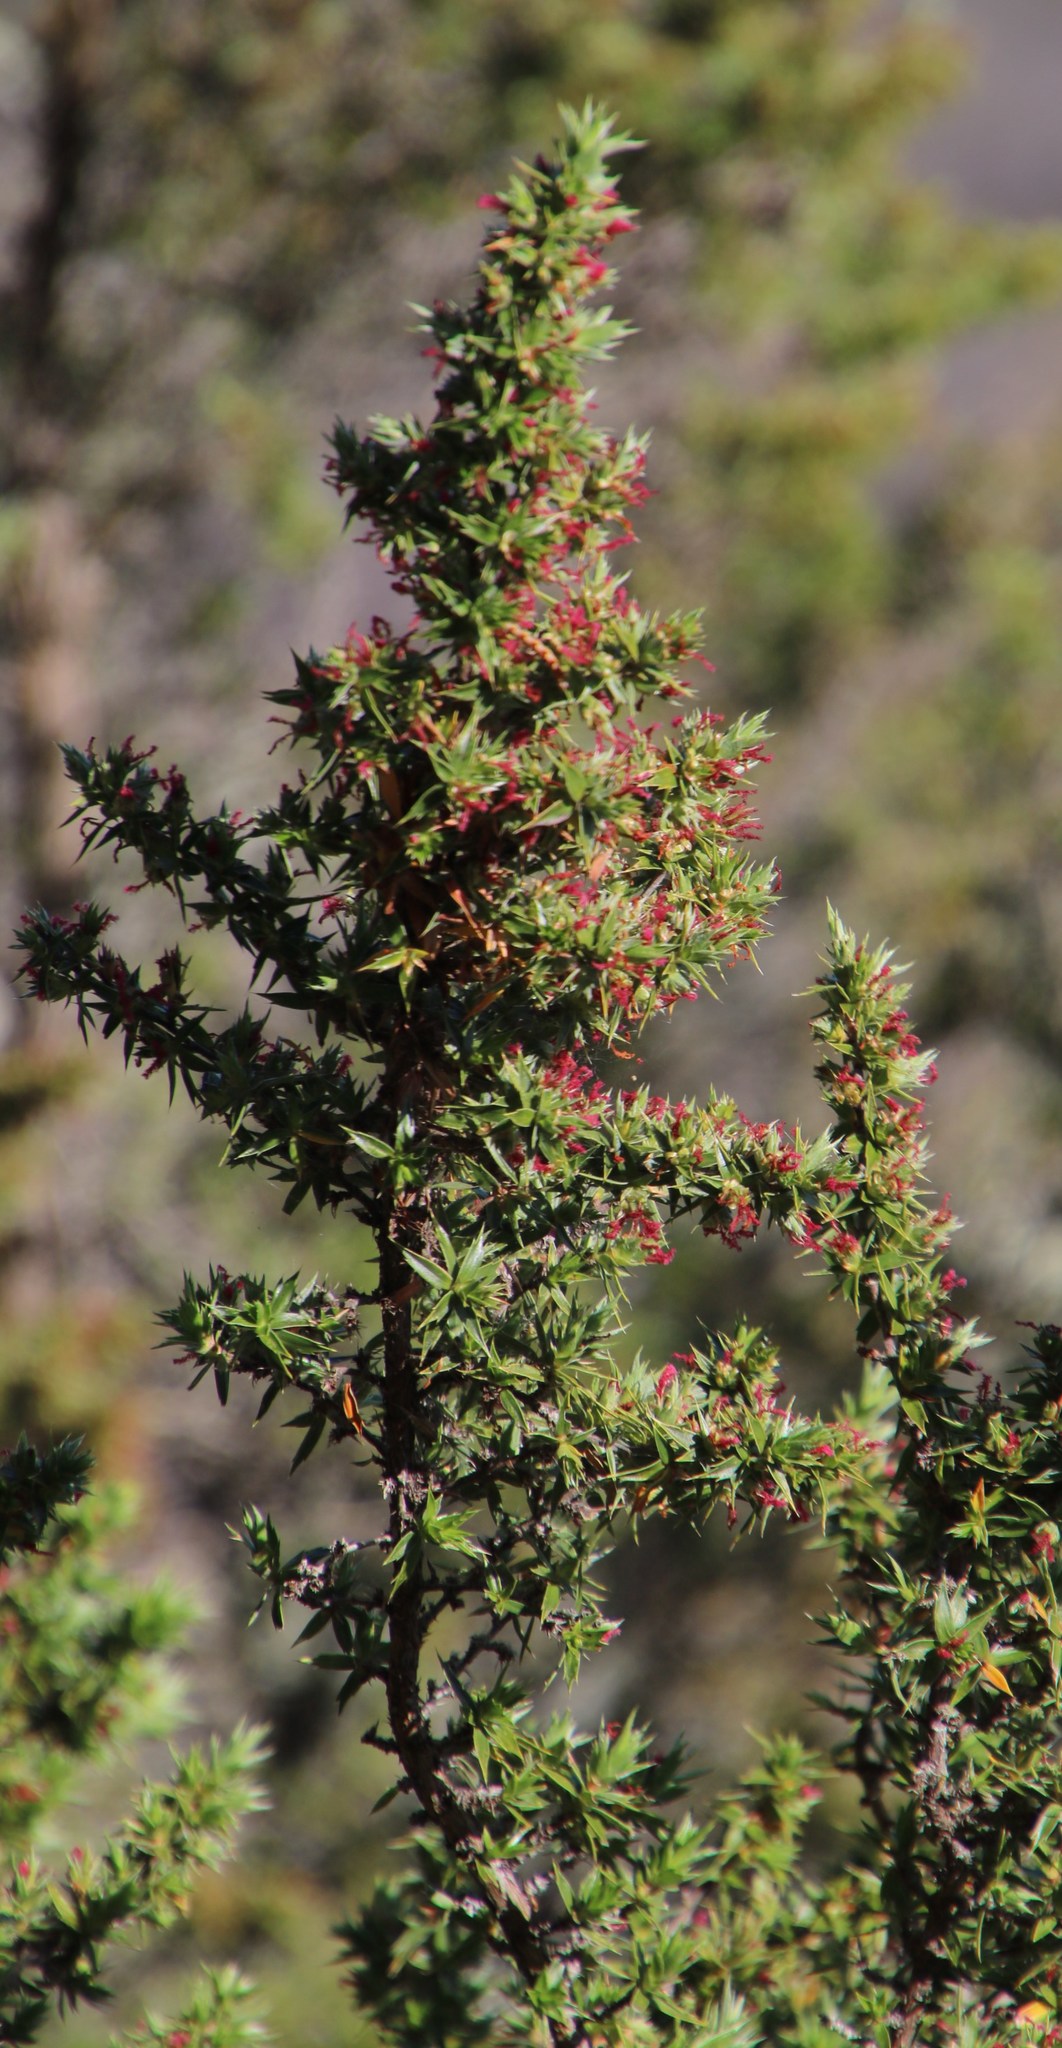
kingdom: Plantae
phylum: Tracheophyta
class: Magnoliopsida
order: Rosales
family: Rosaceae
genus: Cliffortia
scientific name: Cliffortia ruscifolia
